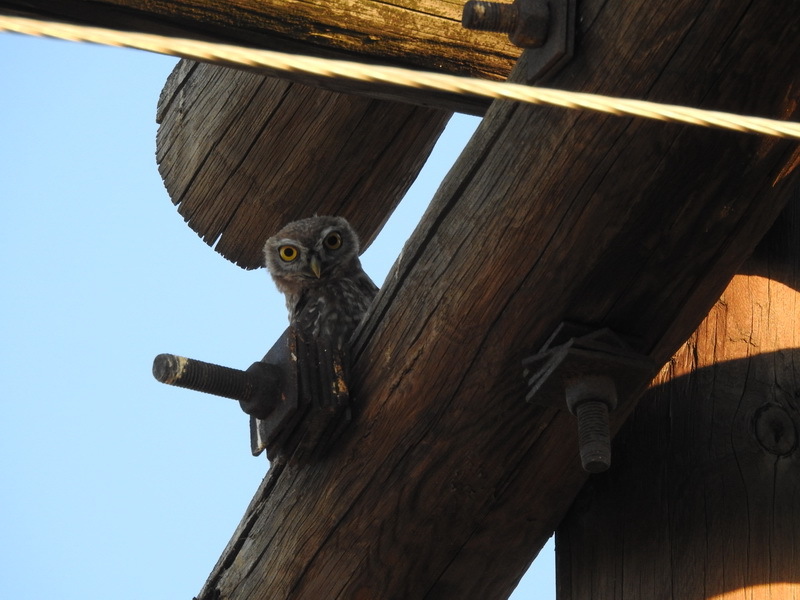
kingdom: Animalia
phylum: Chordata
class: Aves
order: Strigiformes
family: Strigidae
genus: Athene
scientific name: Athene noctua
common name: Little owl
